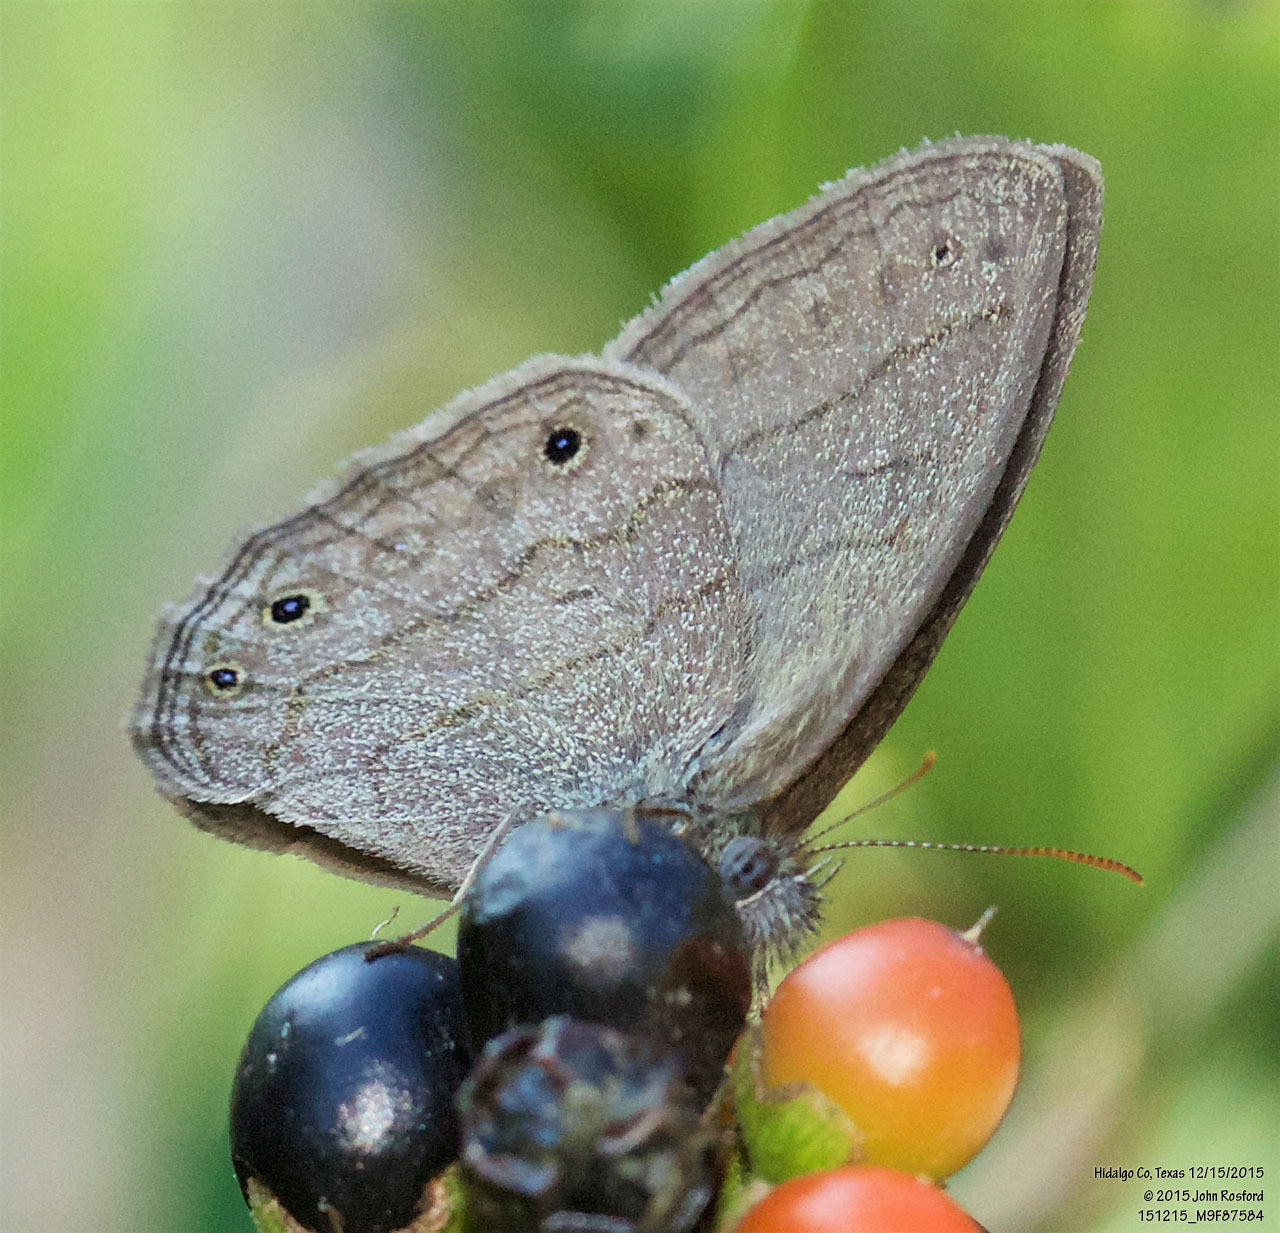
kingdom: Animalia
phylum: Arthropoda
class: Insecta
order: Lepidoptera
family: Nymphalidae
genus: Hermeuptychia
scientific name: Hermeuptychia hermybius
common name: South texas satyr
